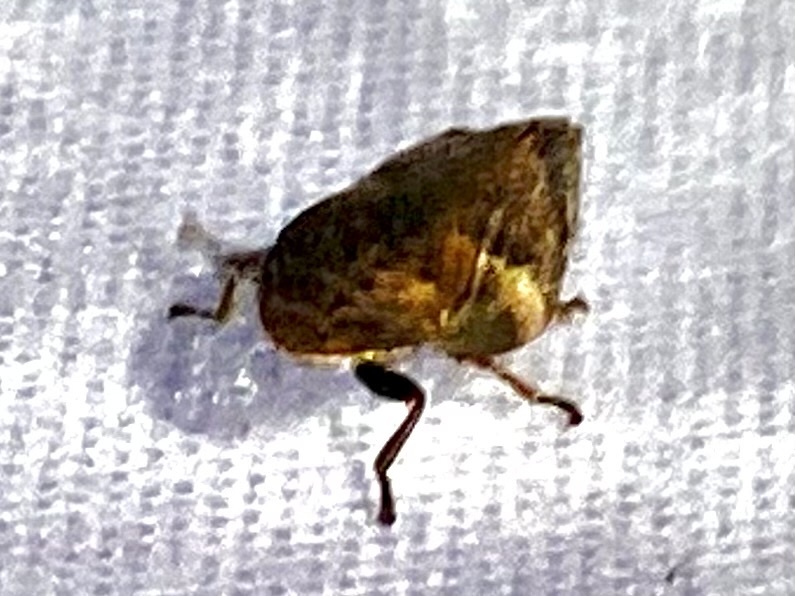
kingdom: Animalia
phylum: Arthropoda
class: Insecta
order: Hemiptera
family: Aphrophoridae
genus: Lepyronia
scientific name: Lepyronia quadrangularis
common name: Diamond-backed spittlebug
